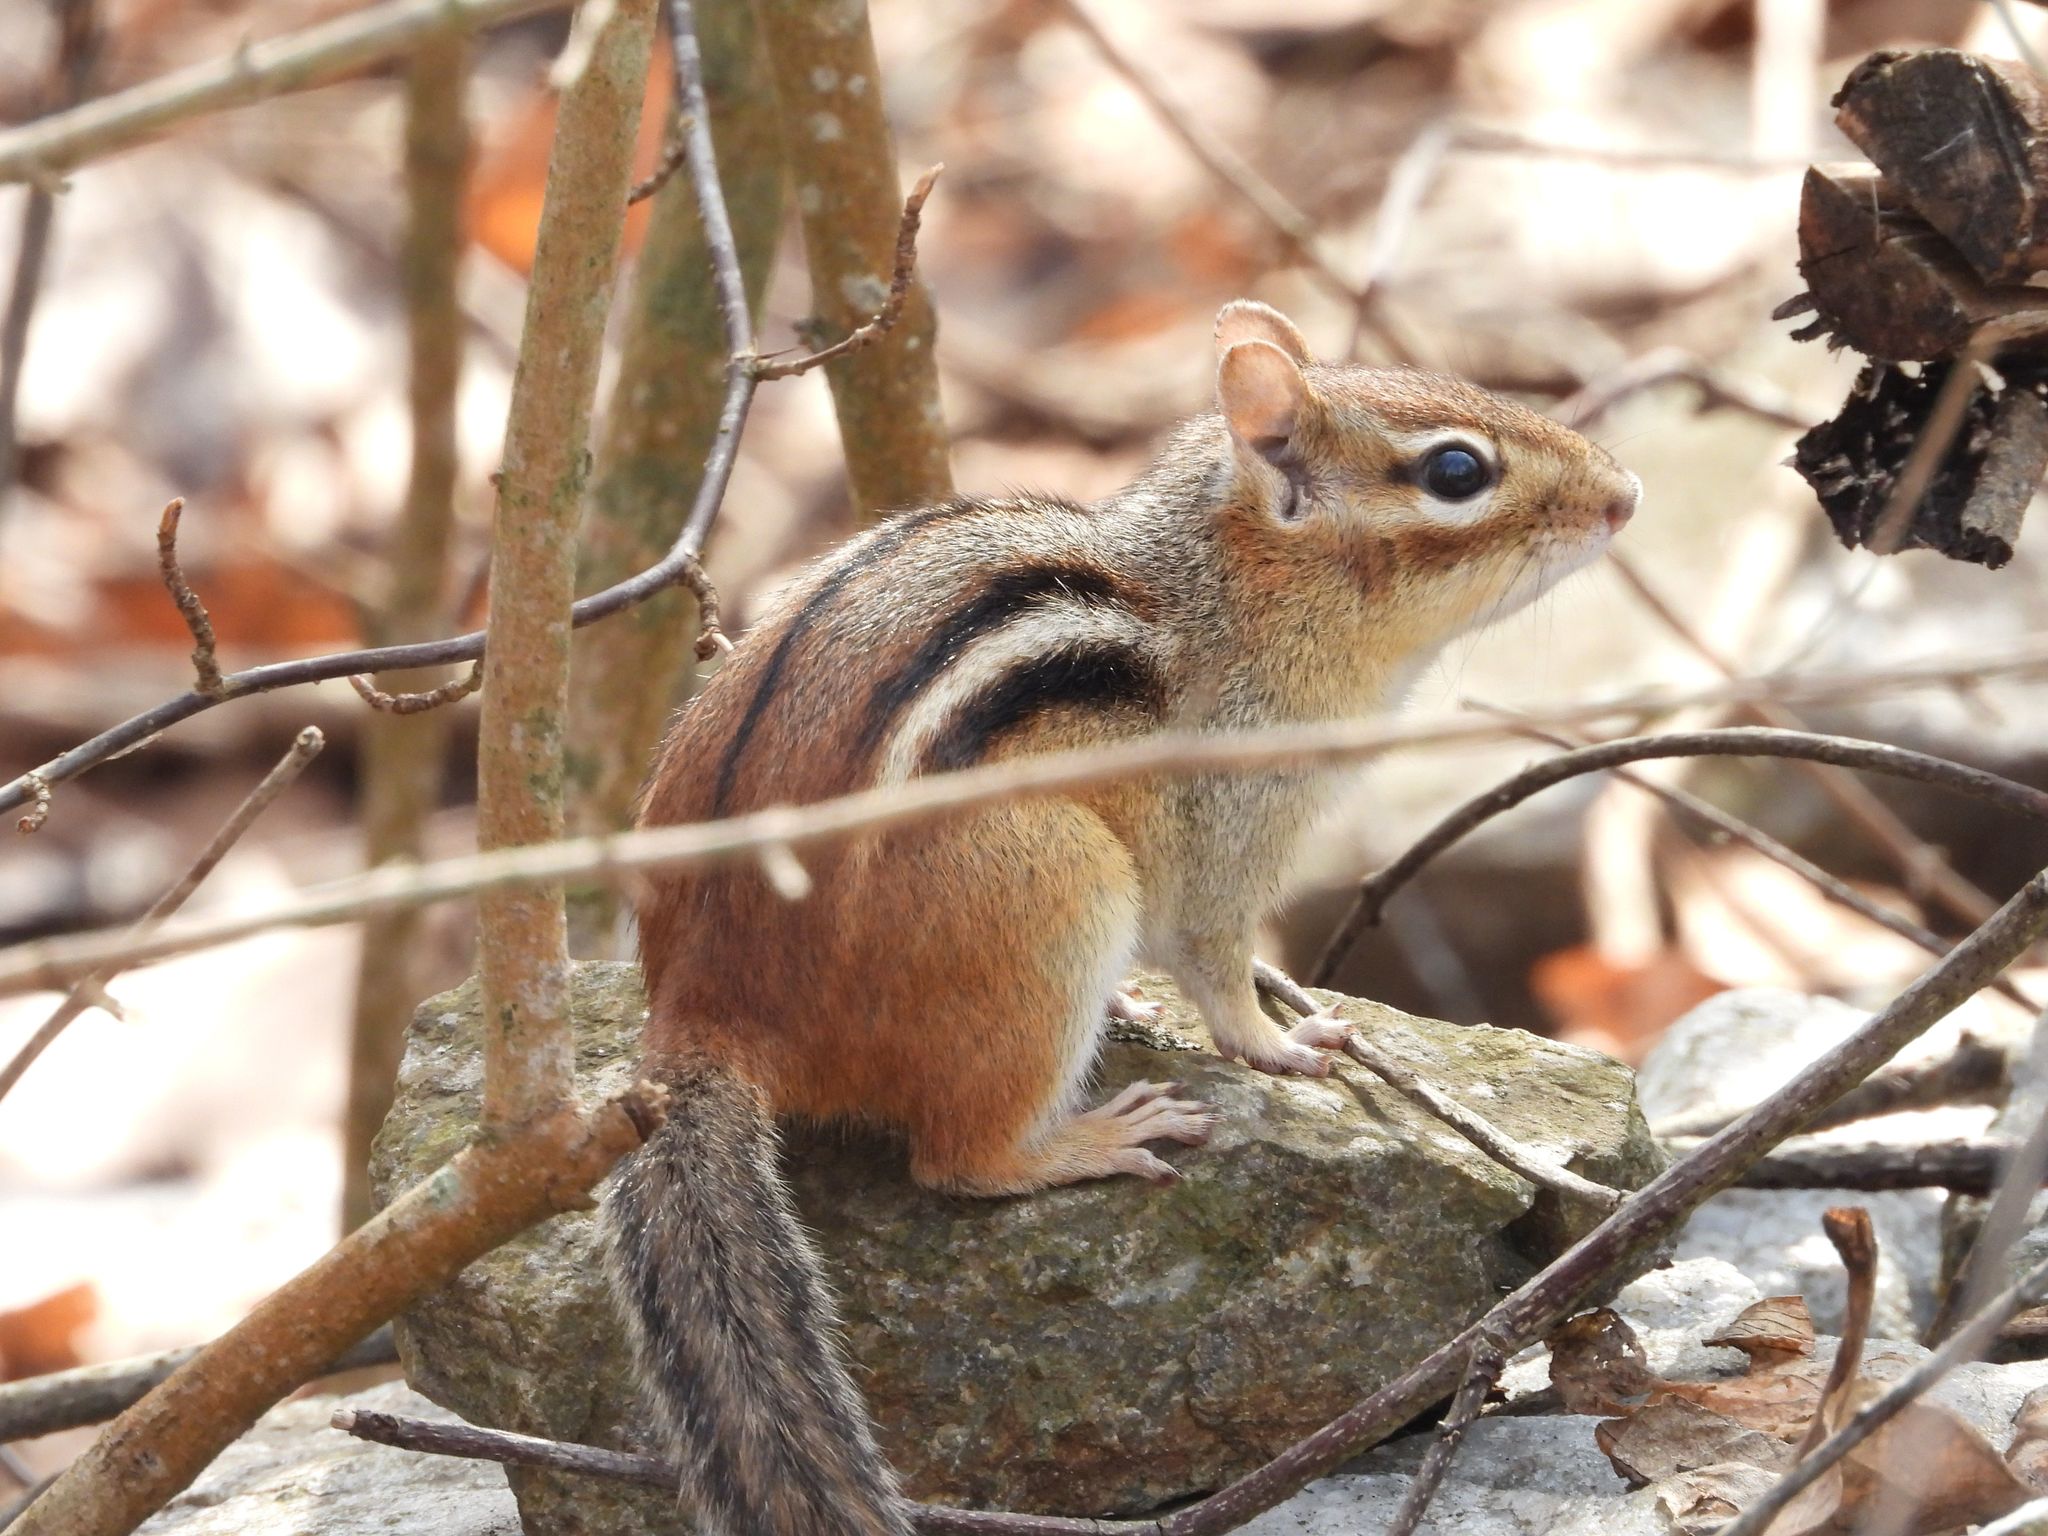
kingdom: Animalia
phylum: Chordata
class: Mammalia
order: Rodentia
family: Sciuridae
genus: Tamias
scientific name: Tamias striatus
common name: Eastern chipmunk
